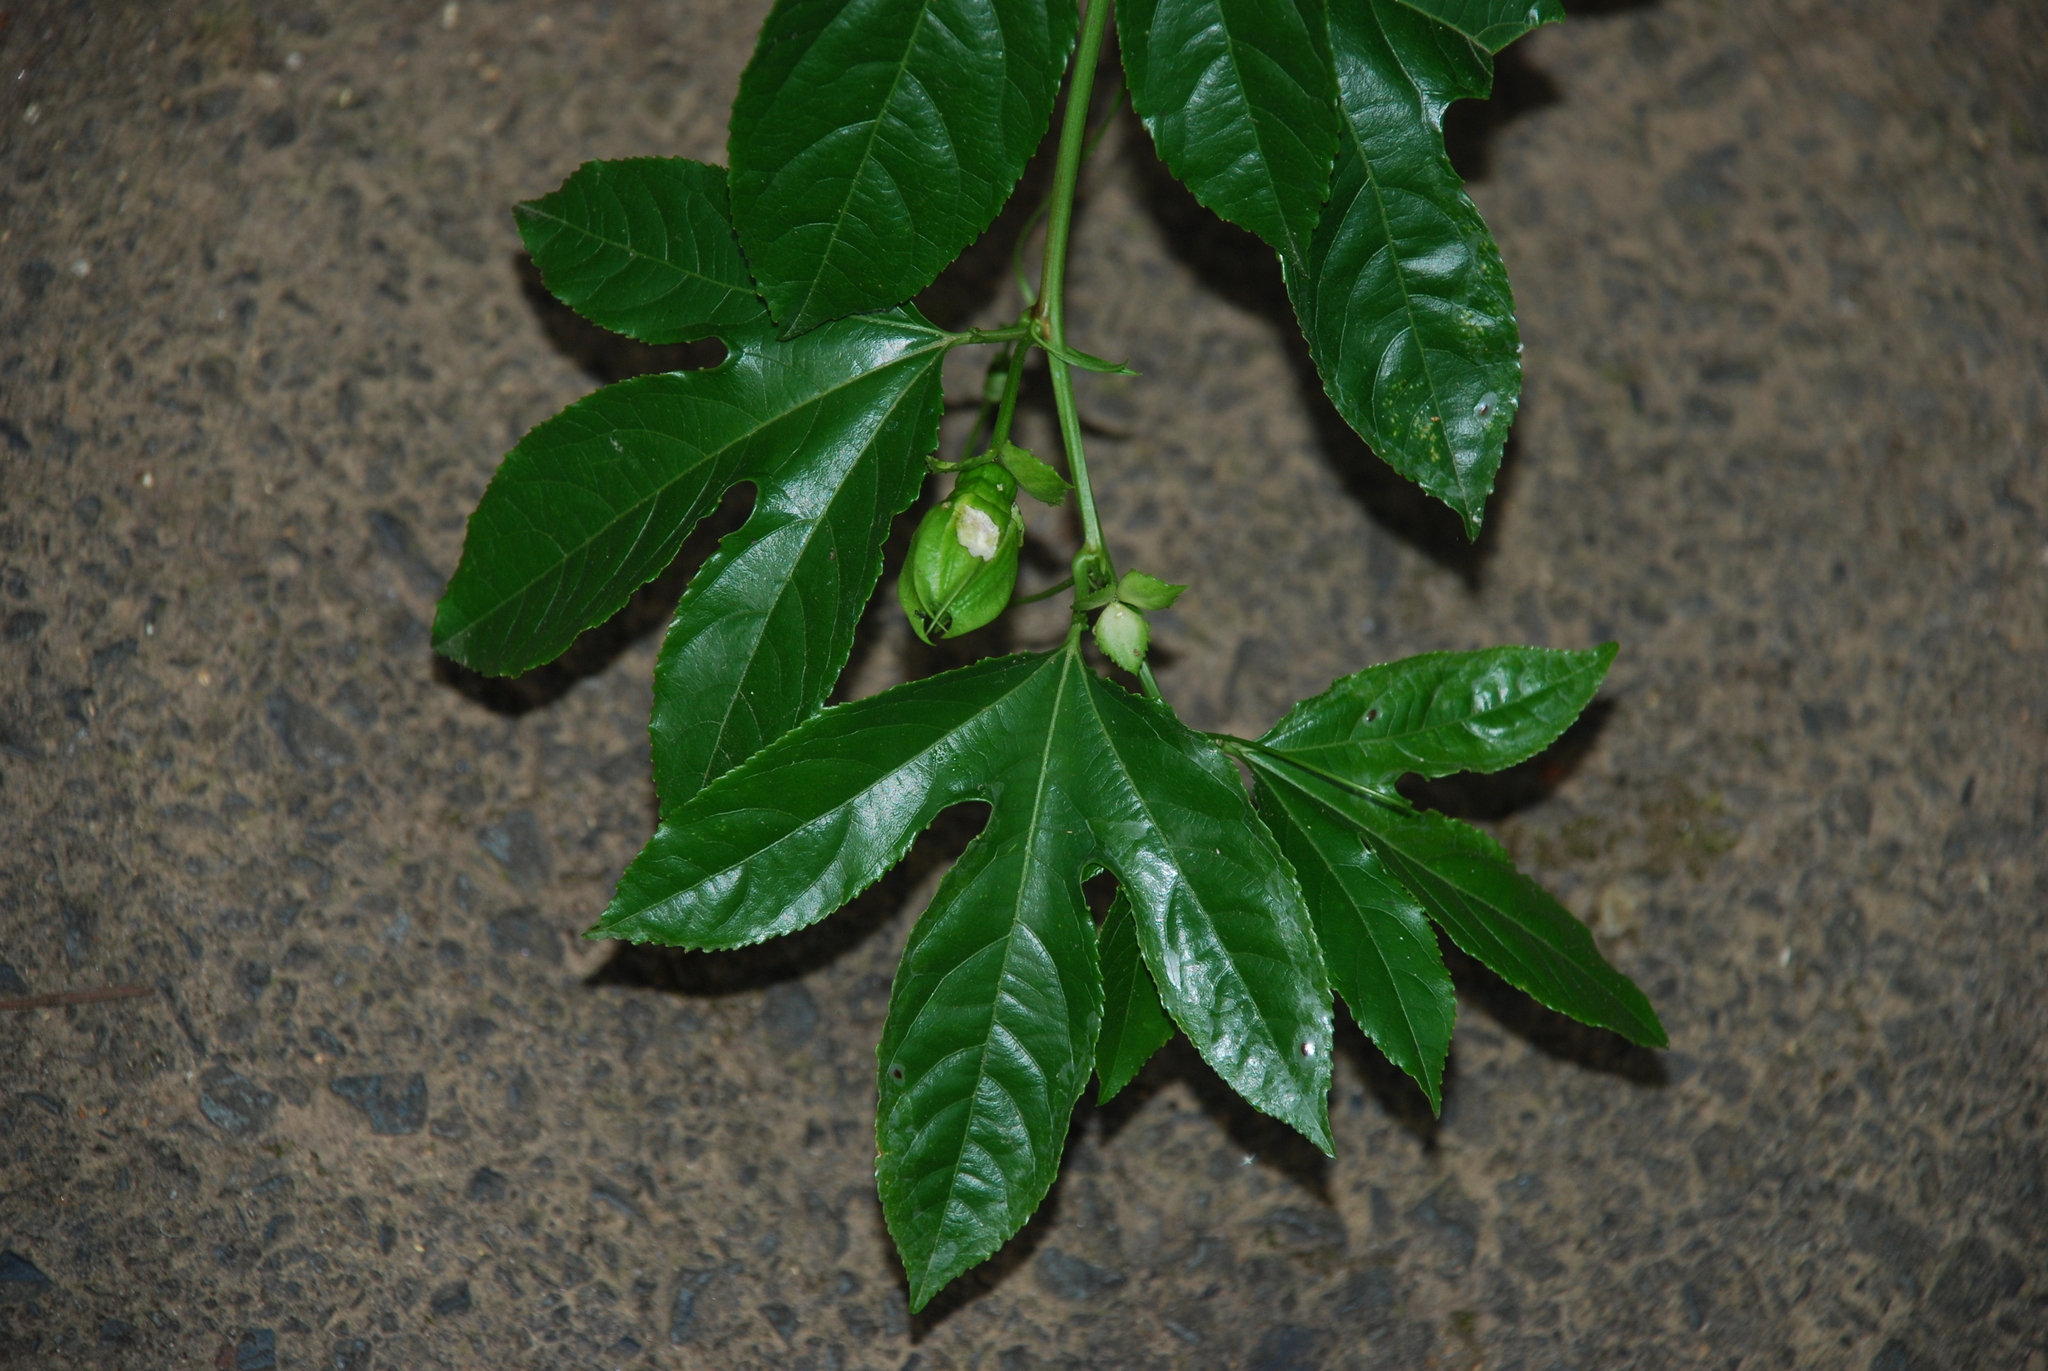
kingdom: Plantae
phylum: Tracheophyta
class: Magnoliopsida
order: Malpighiales
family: Passifloraceae
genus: Passiflora
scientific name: Passiflora edulis
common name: Purple granadilla
